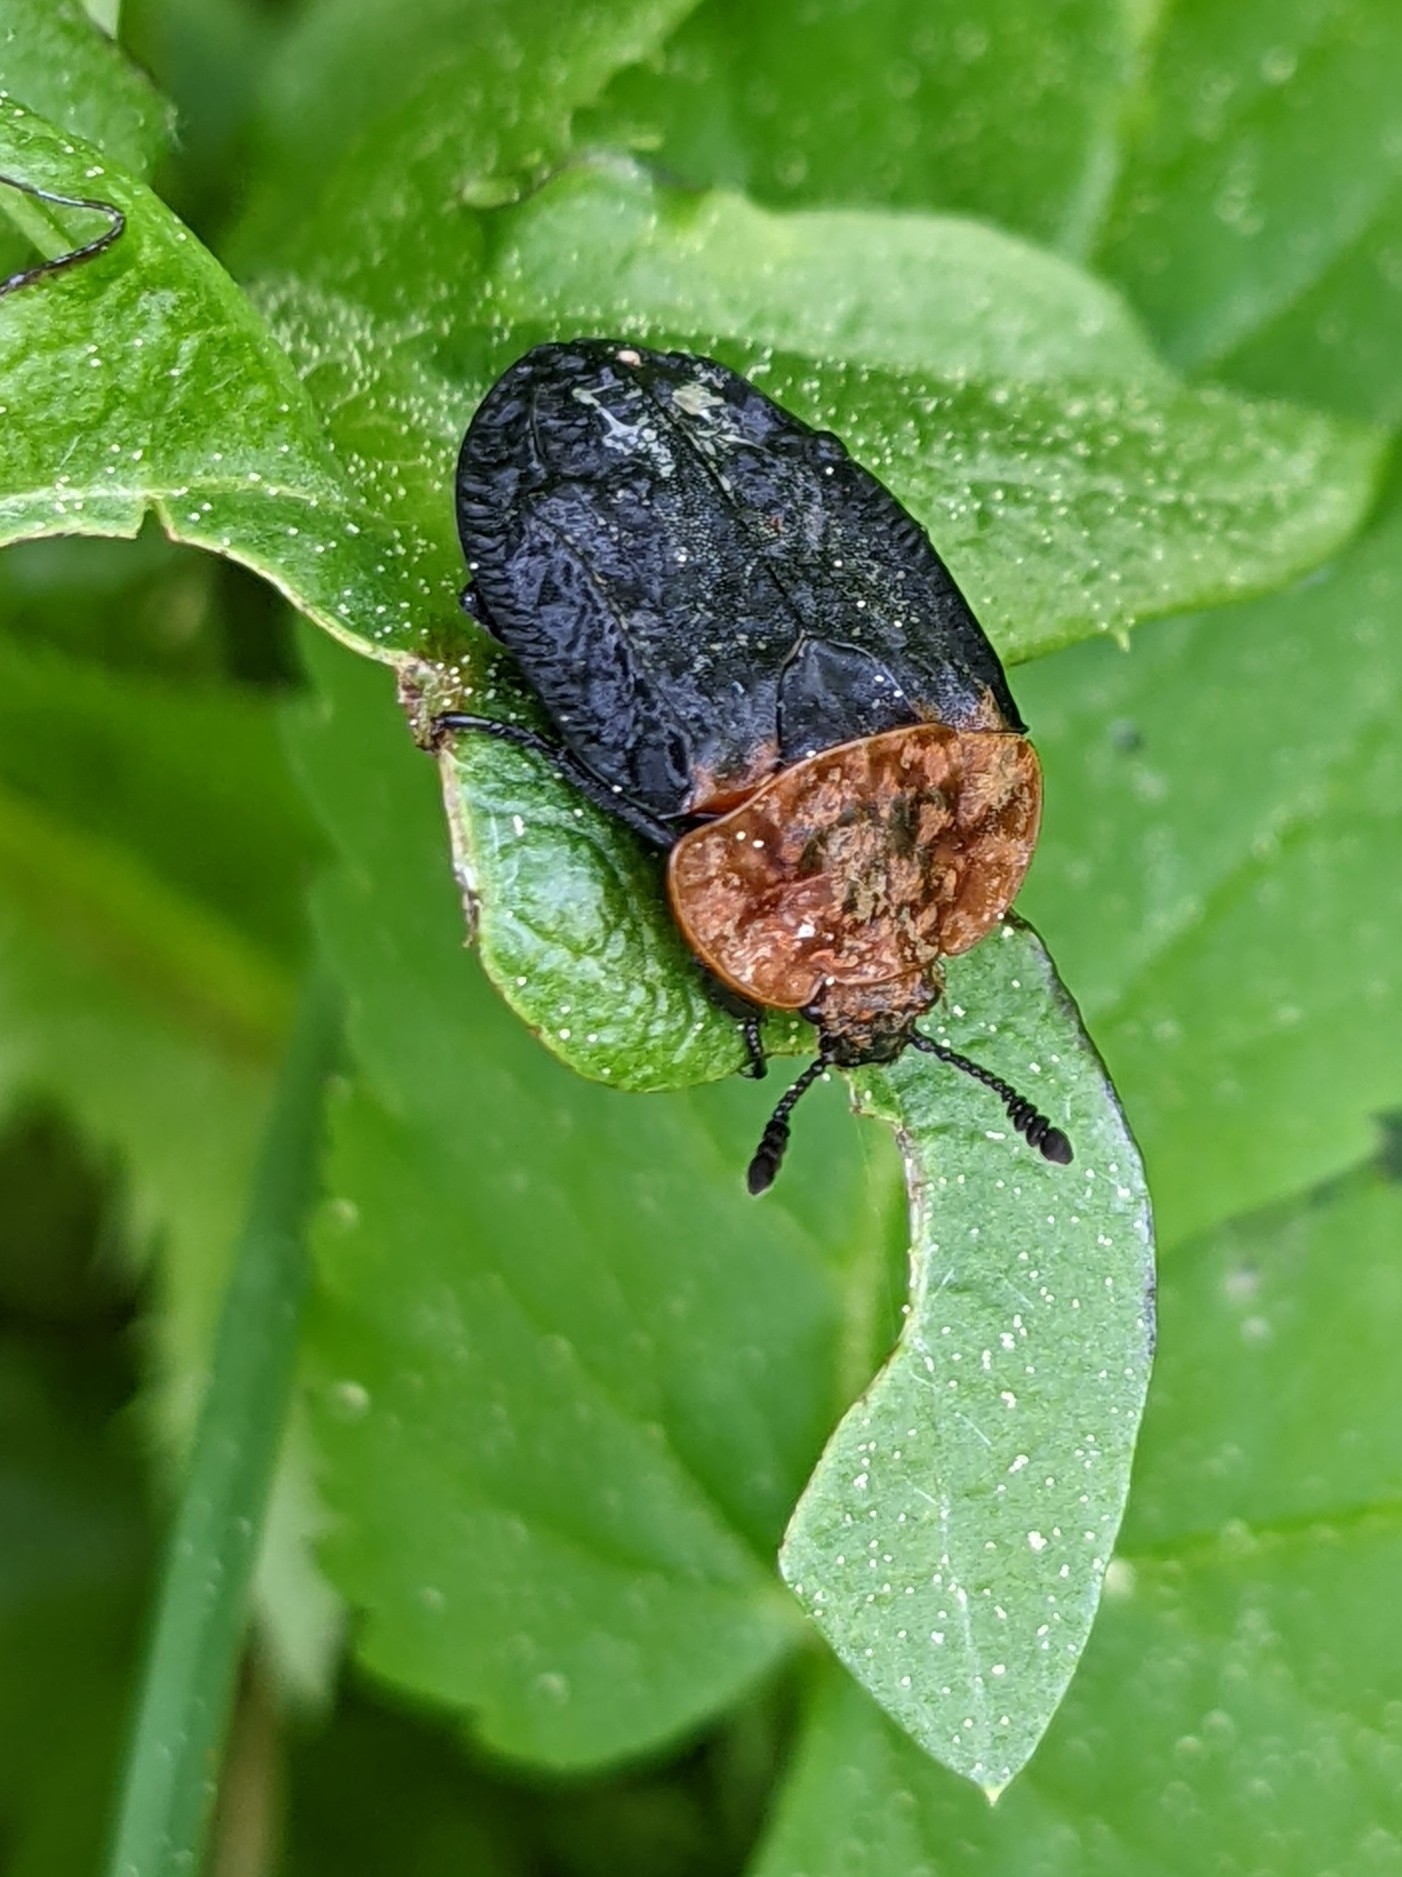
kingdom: Animalia
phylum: Arthropoda
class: Insecta
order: Coleoptera
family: Staphylinidae
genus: Oiceoptoma
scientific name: Oiceoptoma thoracicum
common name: Red-breasted carrion beetle
